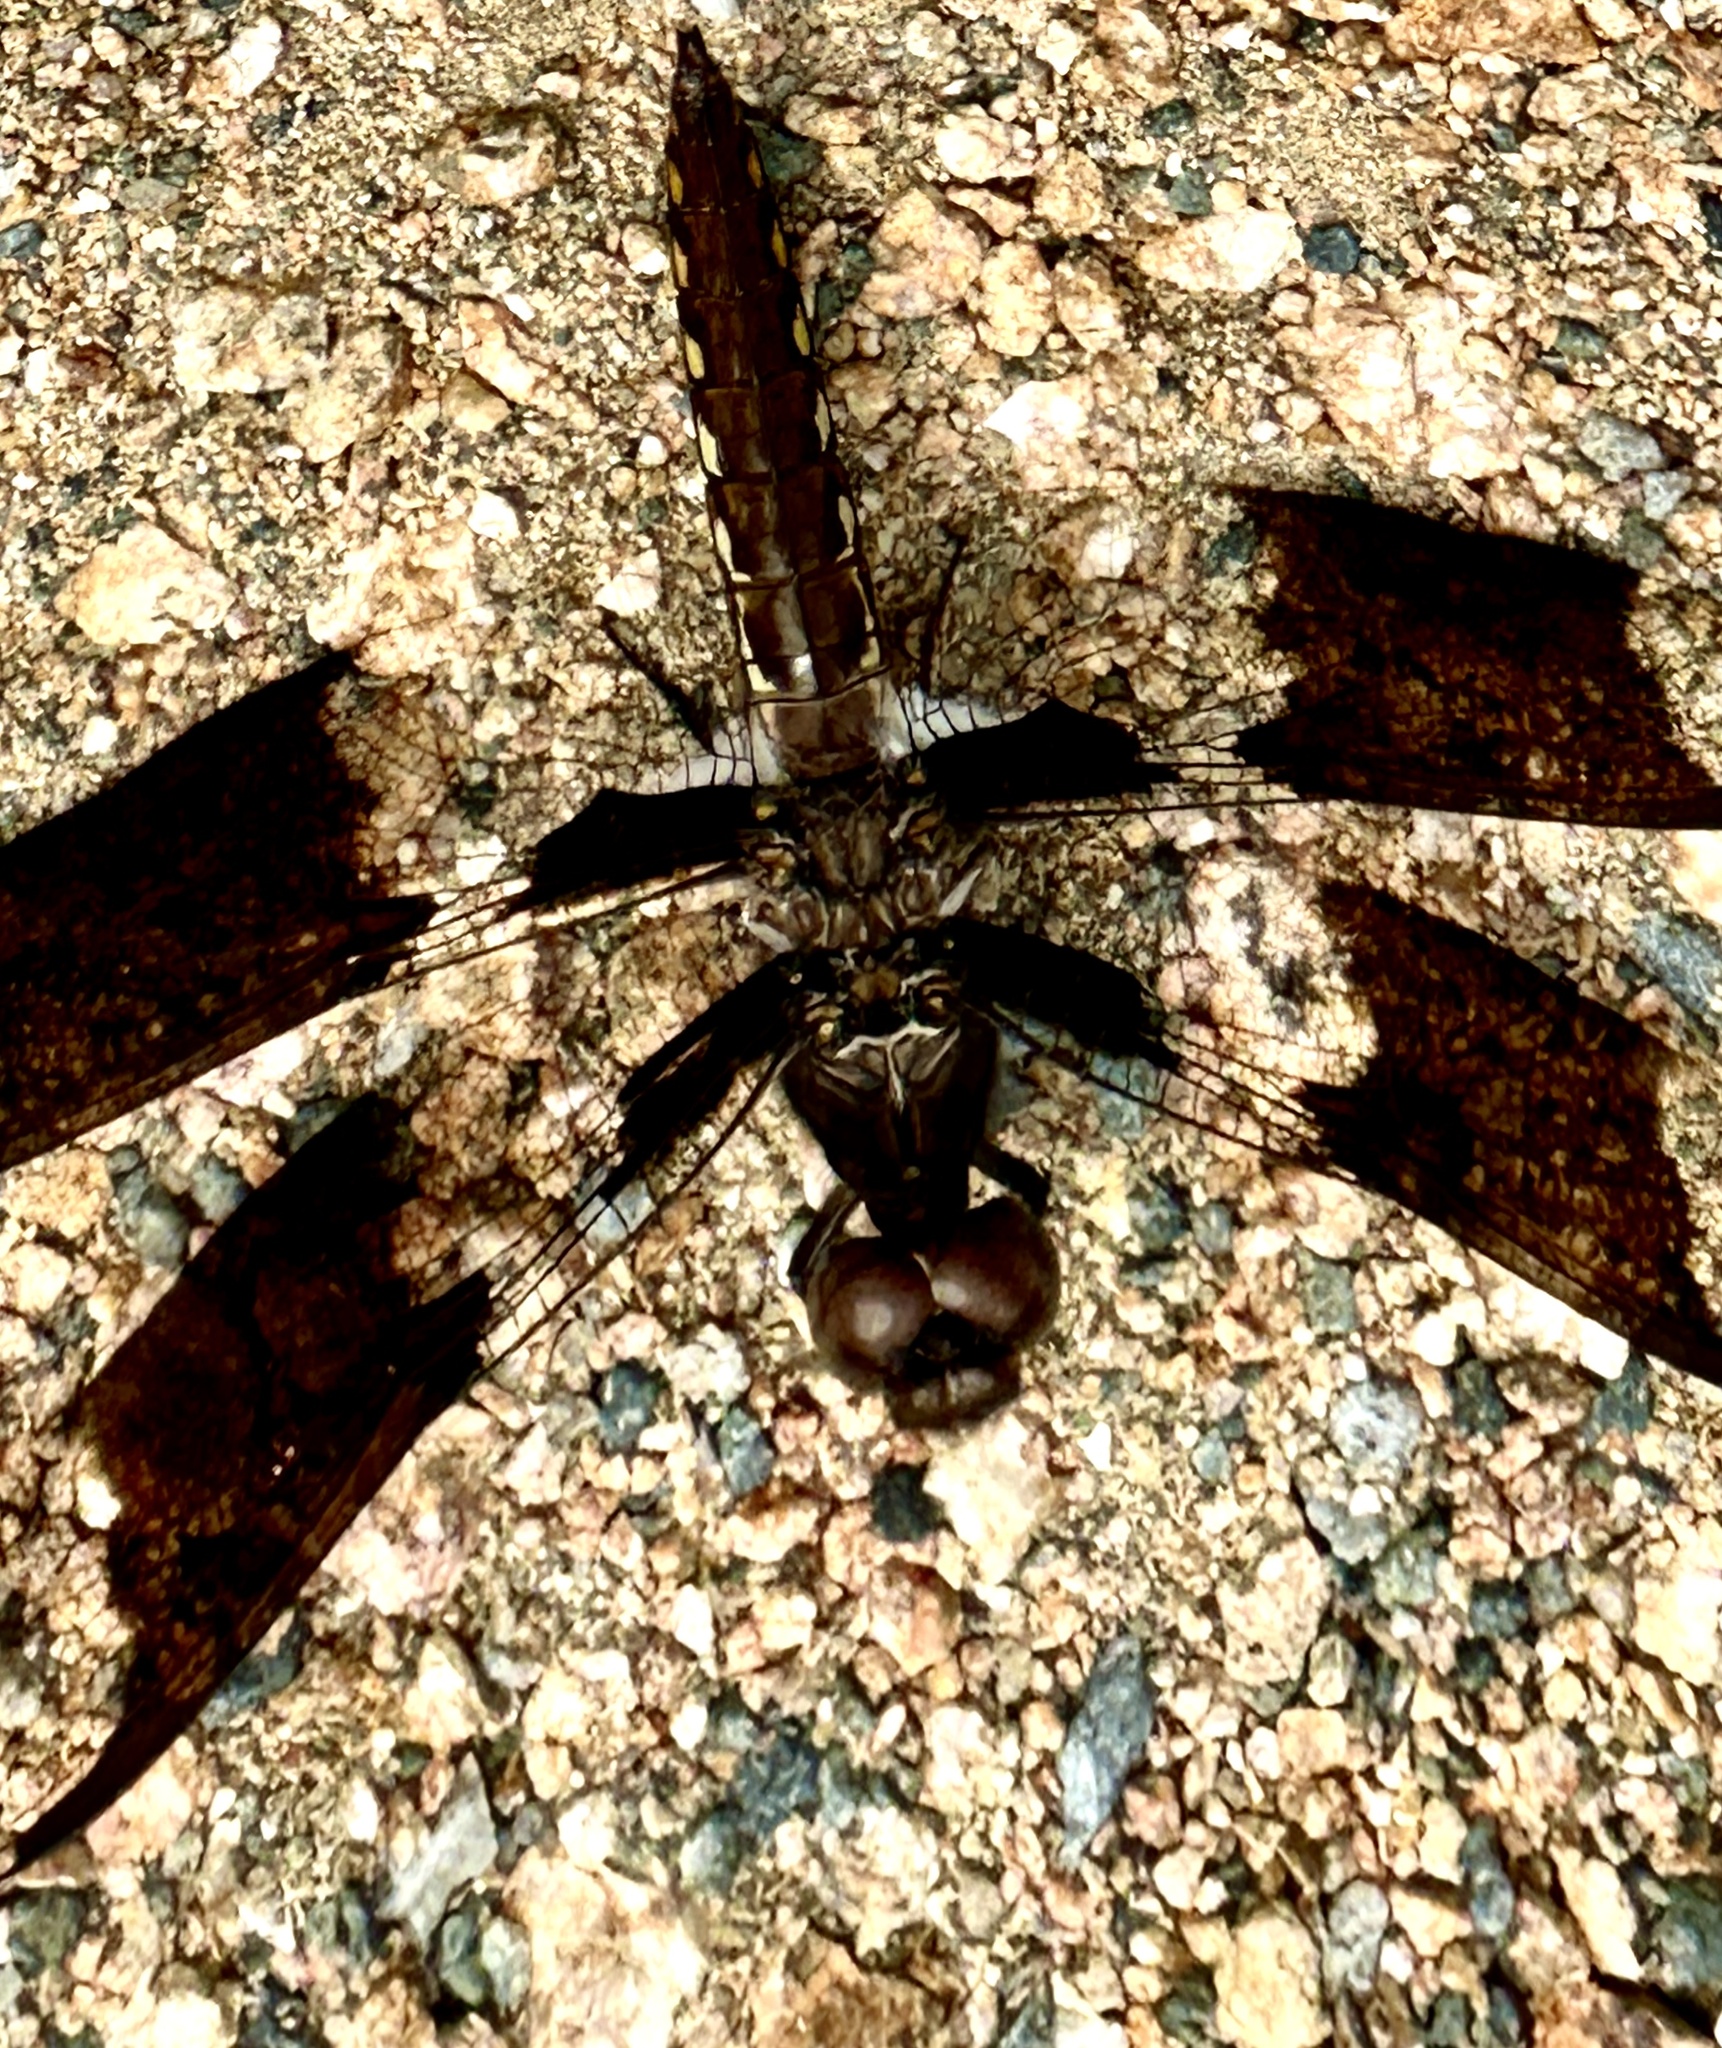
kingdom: Animalia
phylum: Arthropoda
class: Insecta
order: Odonata
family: Libellulidae
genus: Plathemis
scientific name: Plathemis lydia
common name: Common whitetail
